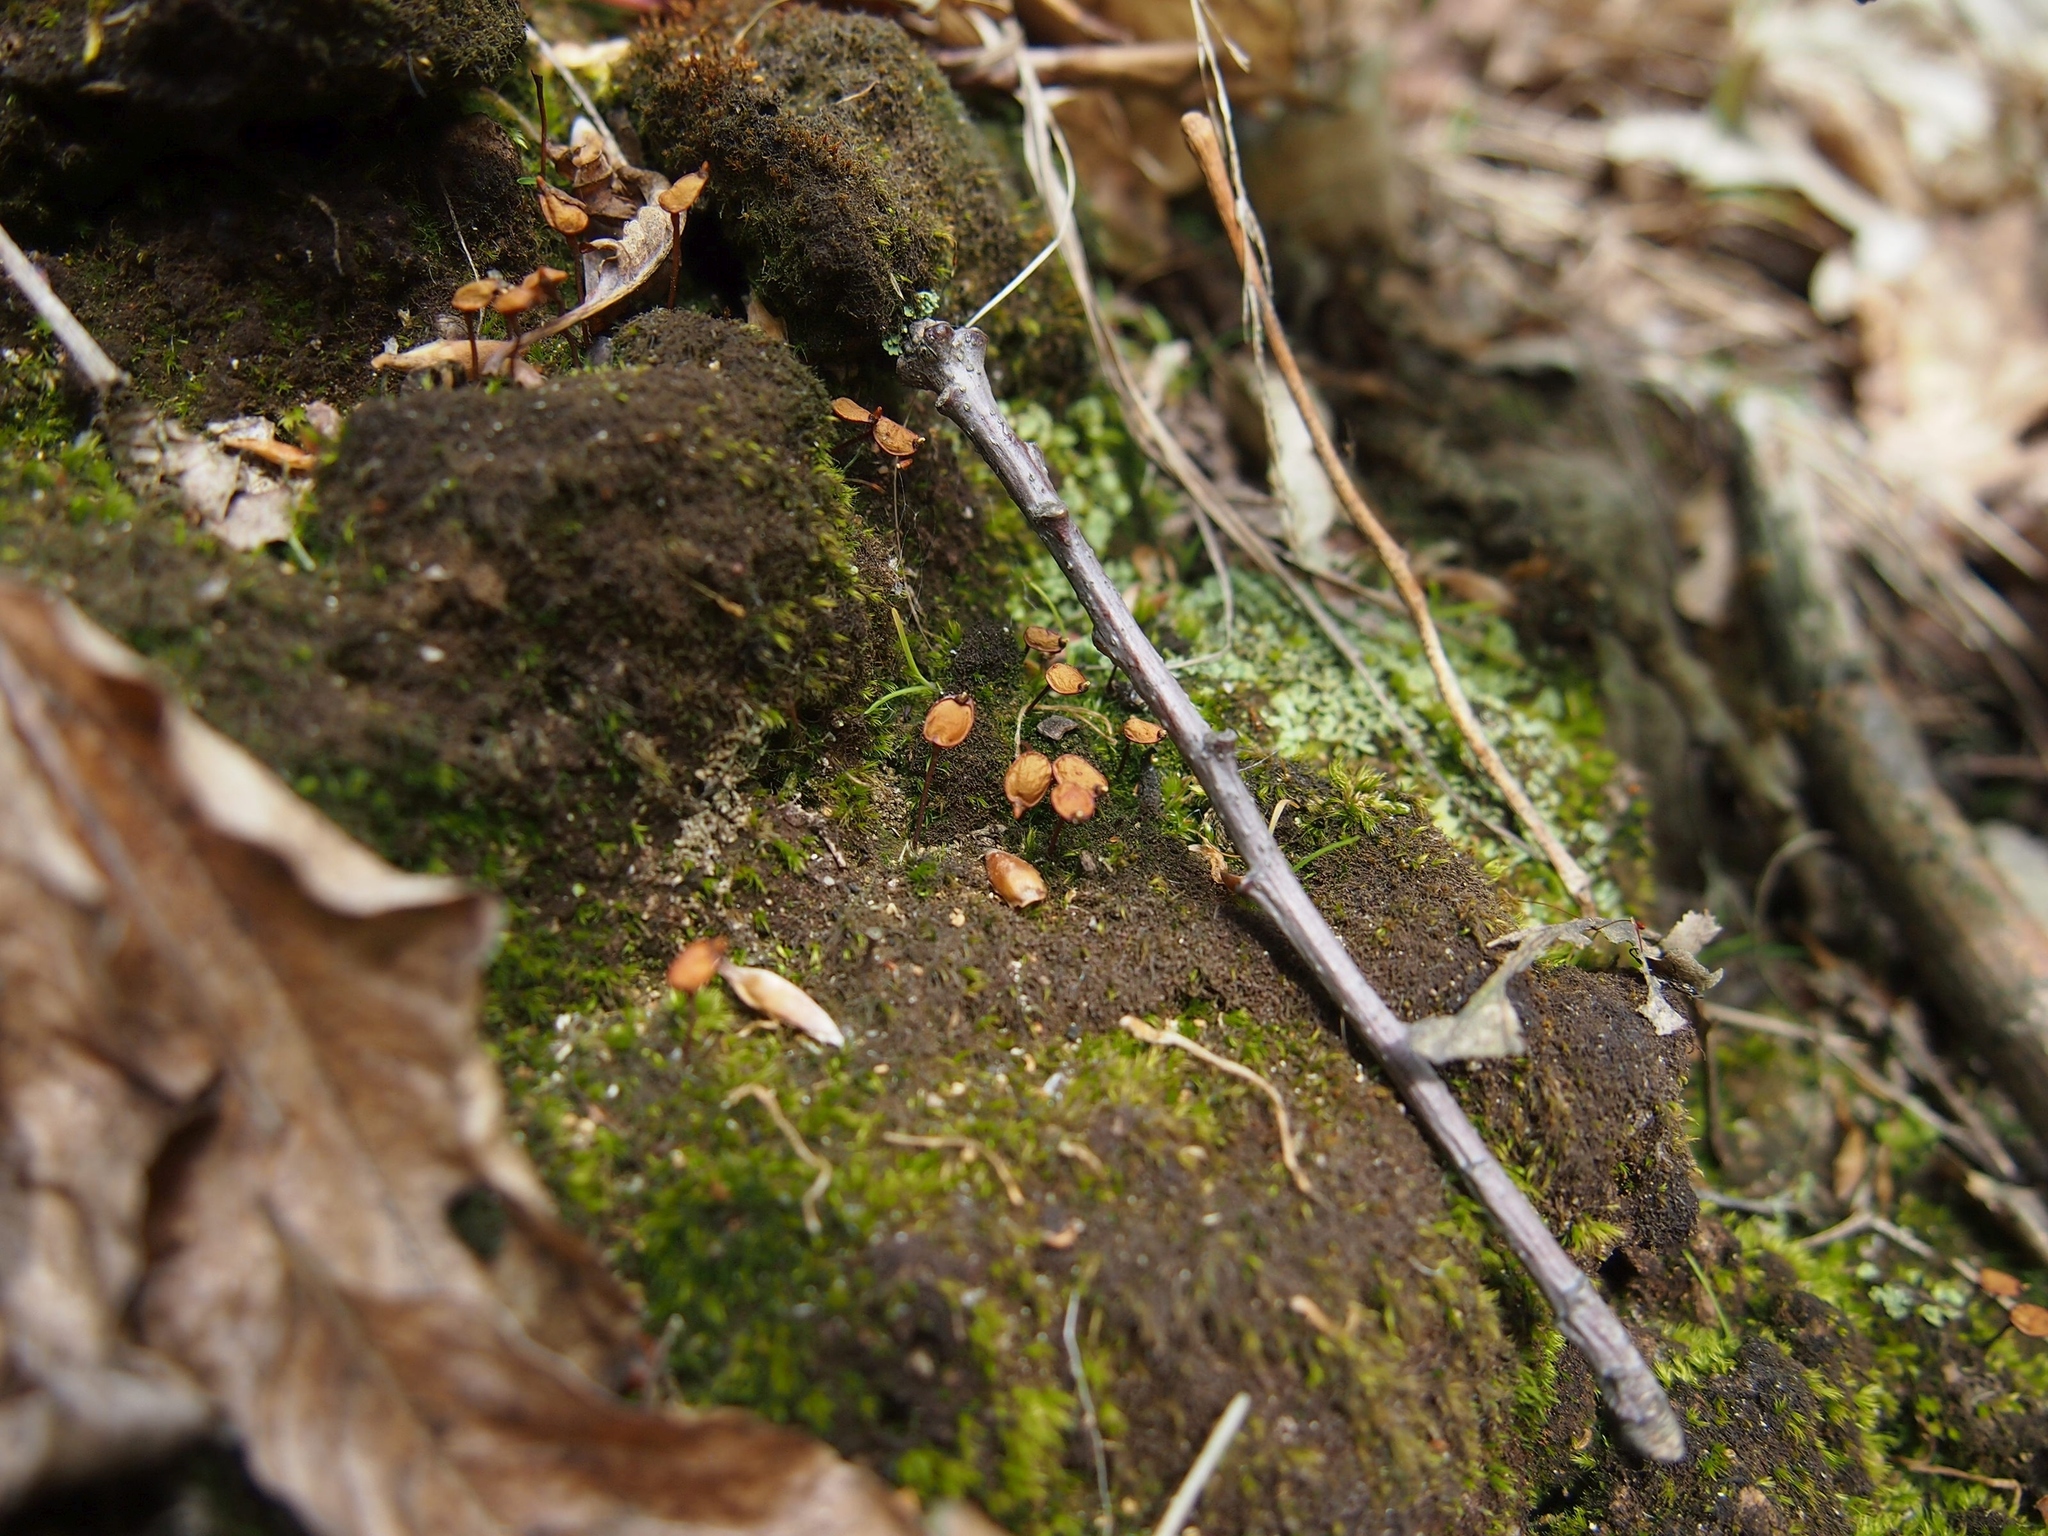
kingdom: Plantae
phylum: Bryophyta
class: Bryopsida
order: Buxbaumiales
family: Buxbaumiaceae
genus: Buxbaumia
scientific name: Buxbaumia aphylla
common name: Brown shield-moss
